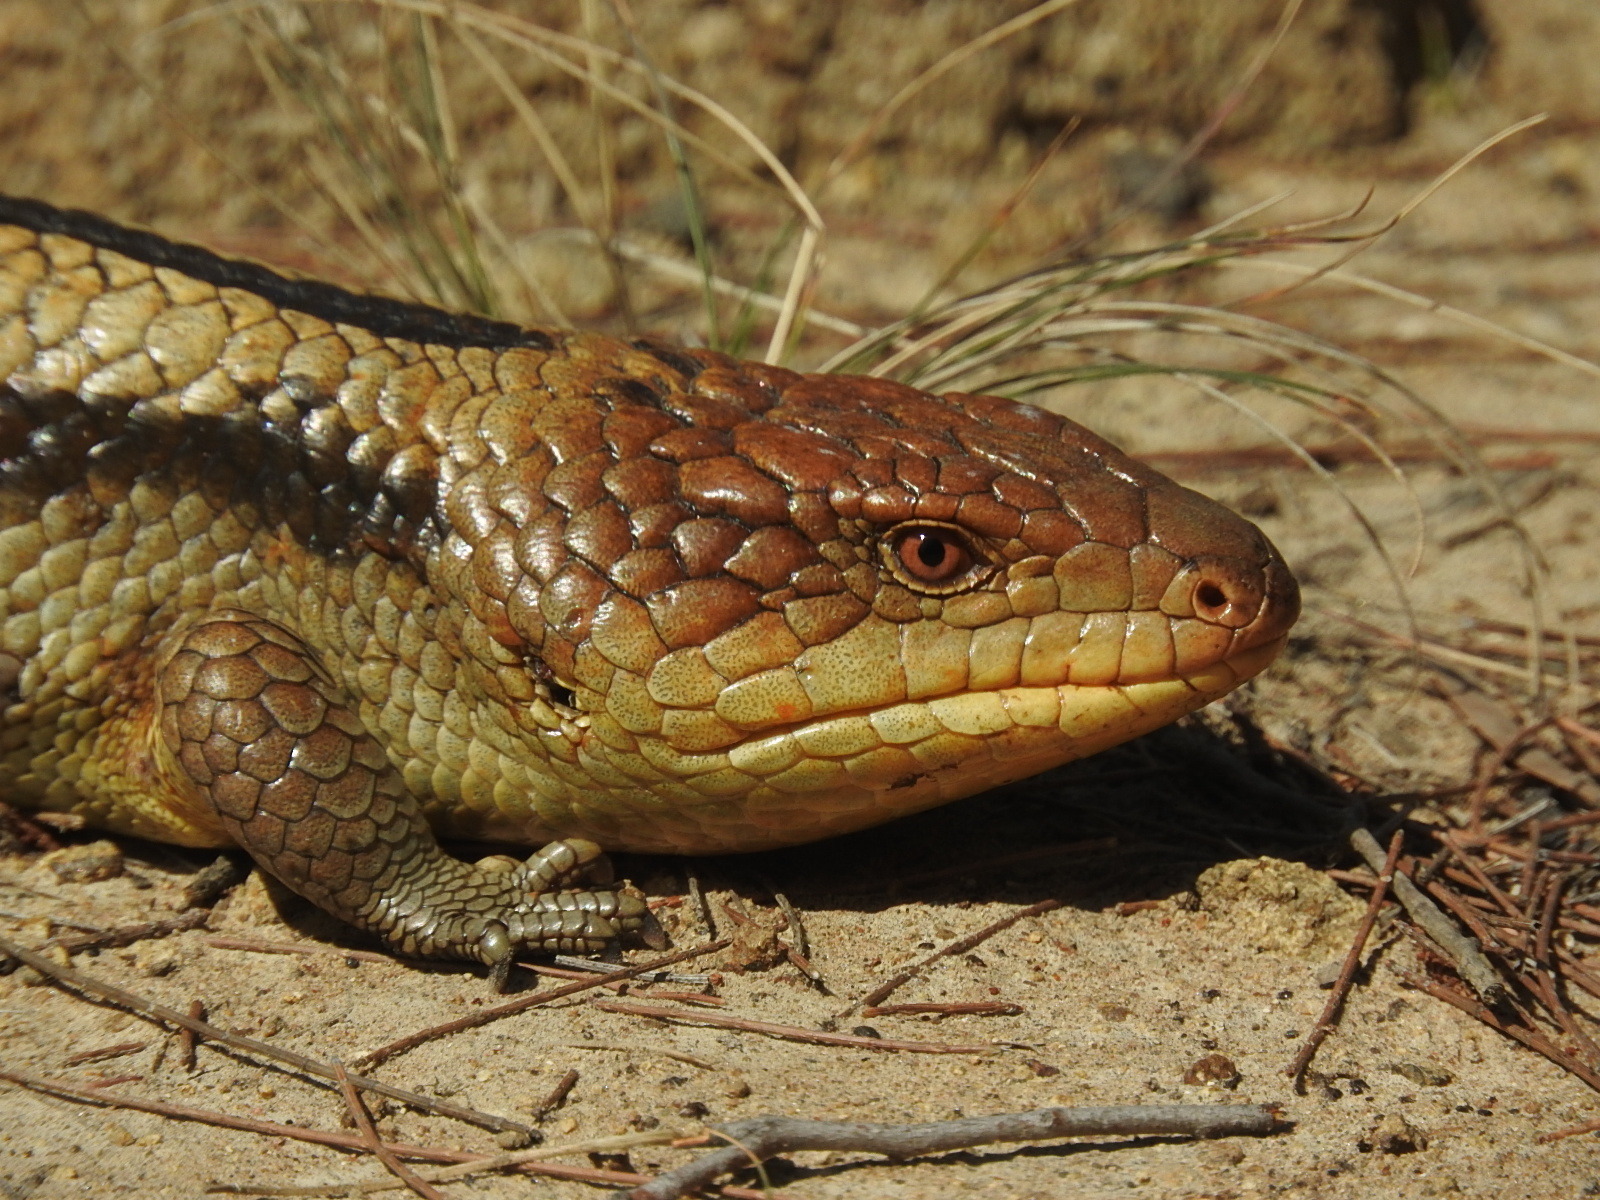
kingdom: Animalia
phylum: Chordata
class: Squamata
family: Scincidae
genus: Tiliqua
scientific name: Tiliqua nigrolutea
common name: Blotched blue-tongued lizard
